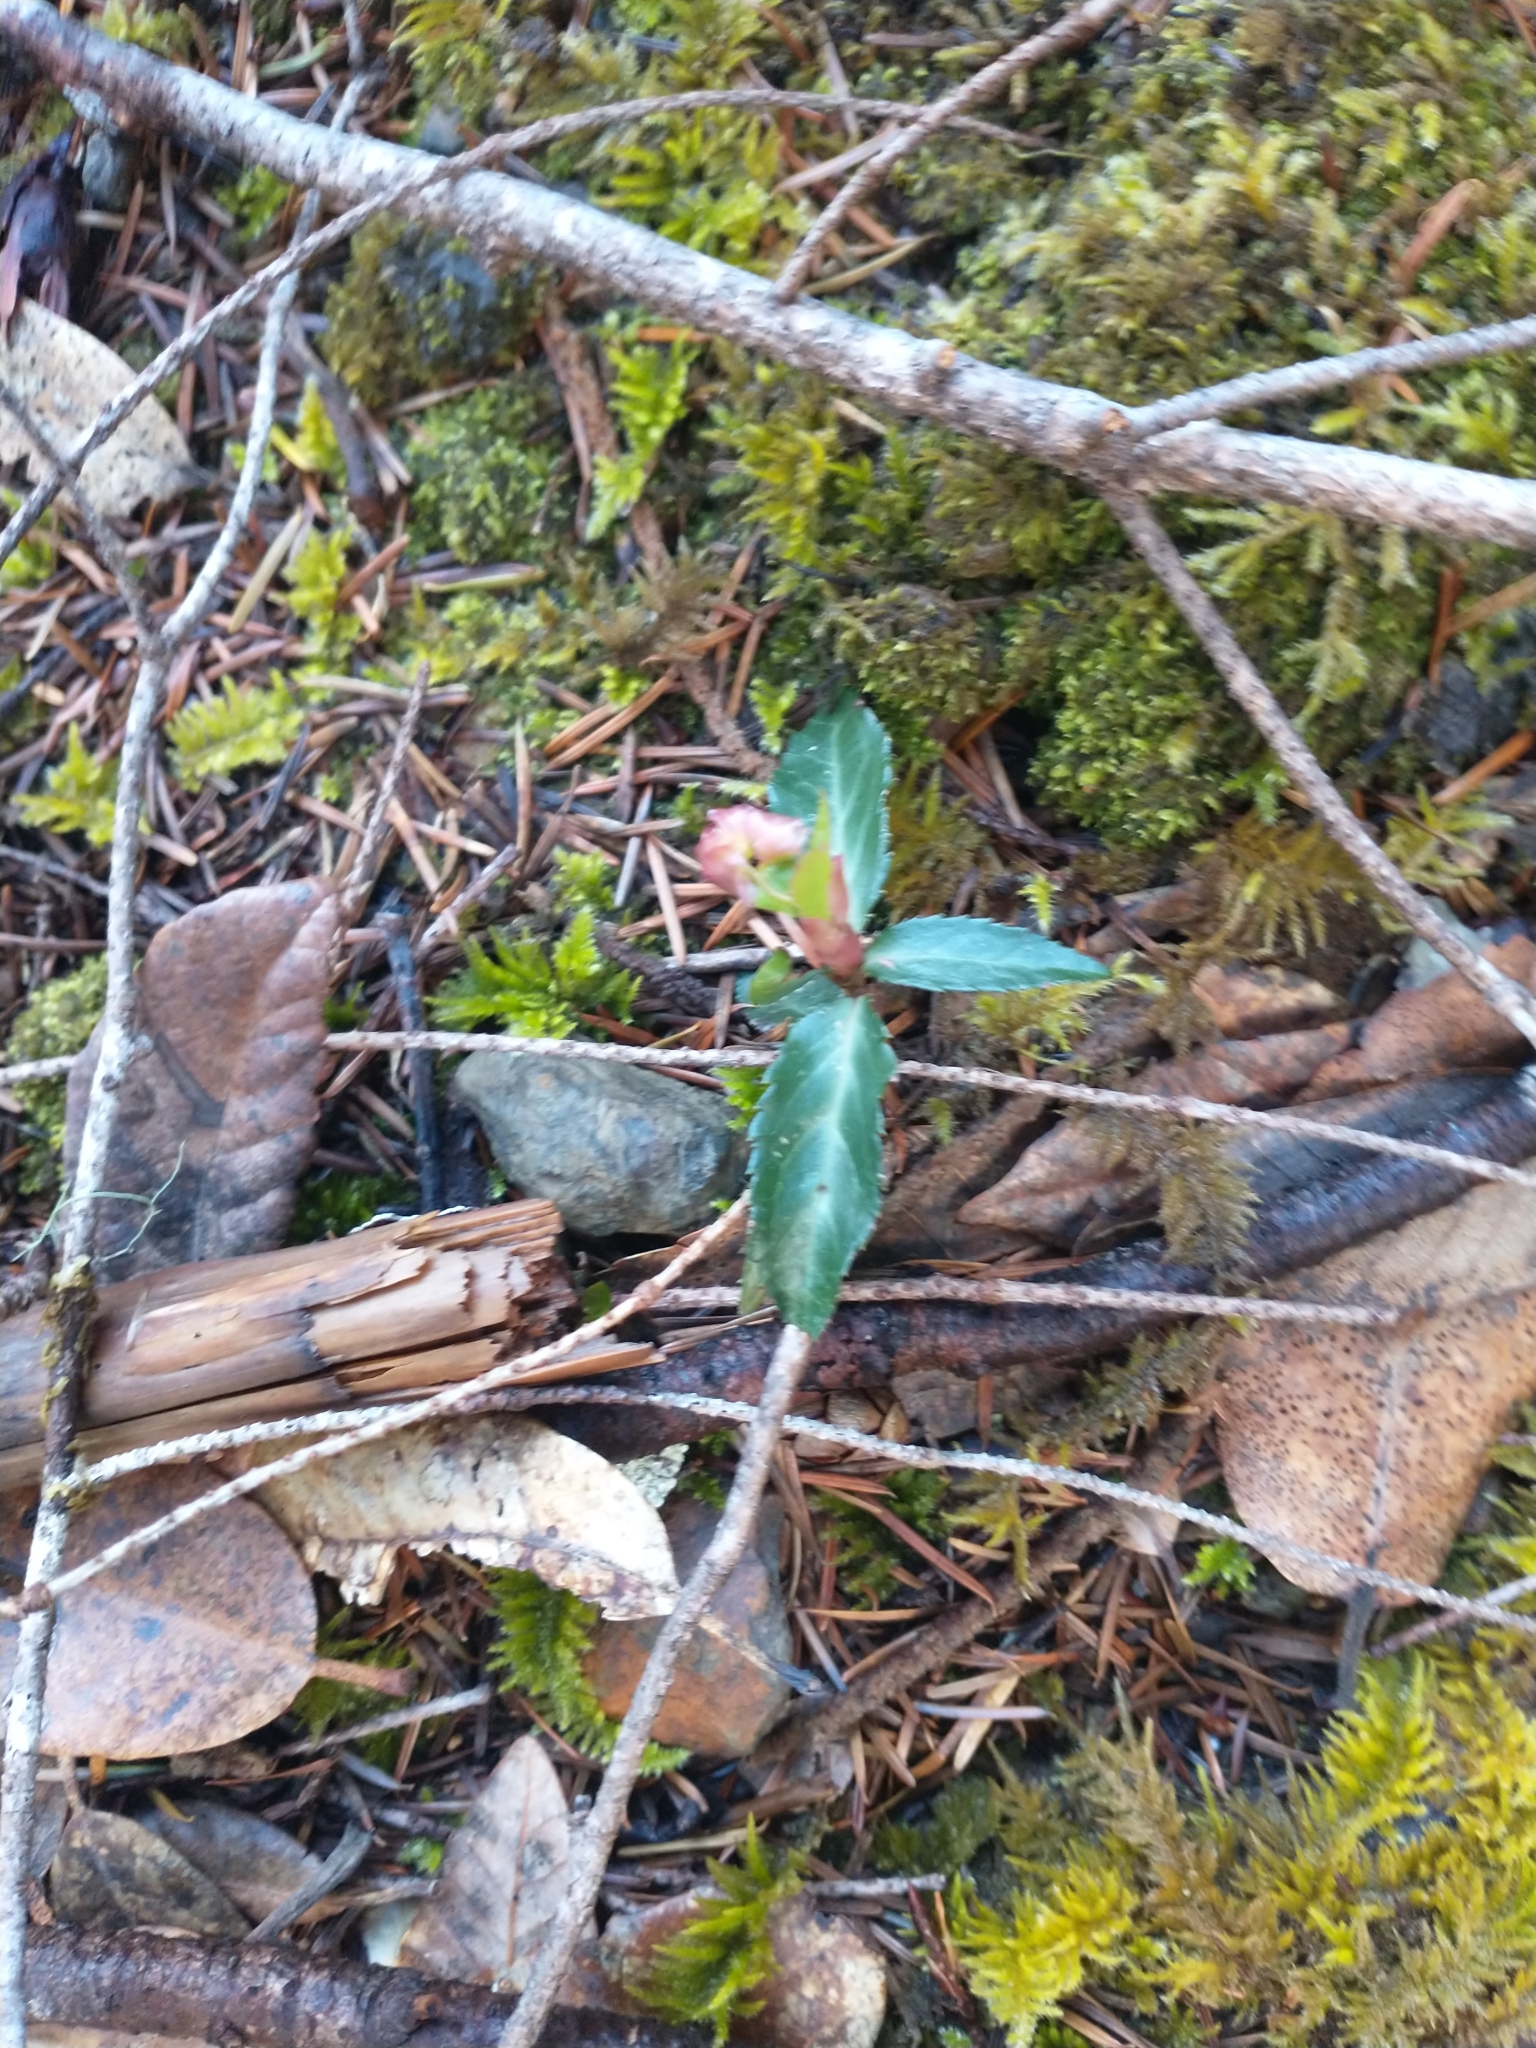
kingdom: Plantae
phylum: Tracheophyta
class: Magnoliopsida
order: Ericales
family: Ericaceae
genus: Chimaphila
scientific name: Chimaphila menziesii
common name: Menzies' pipsissewa
